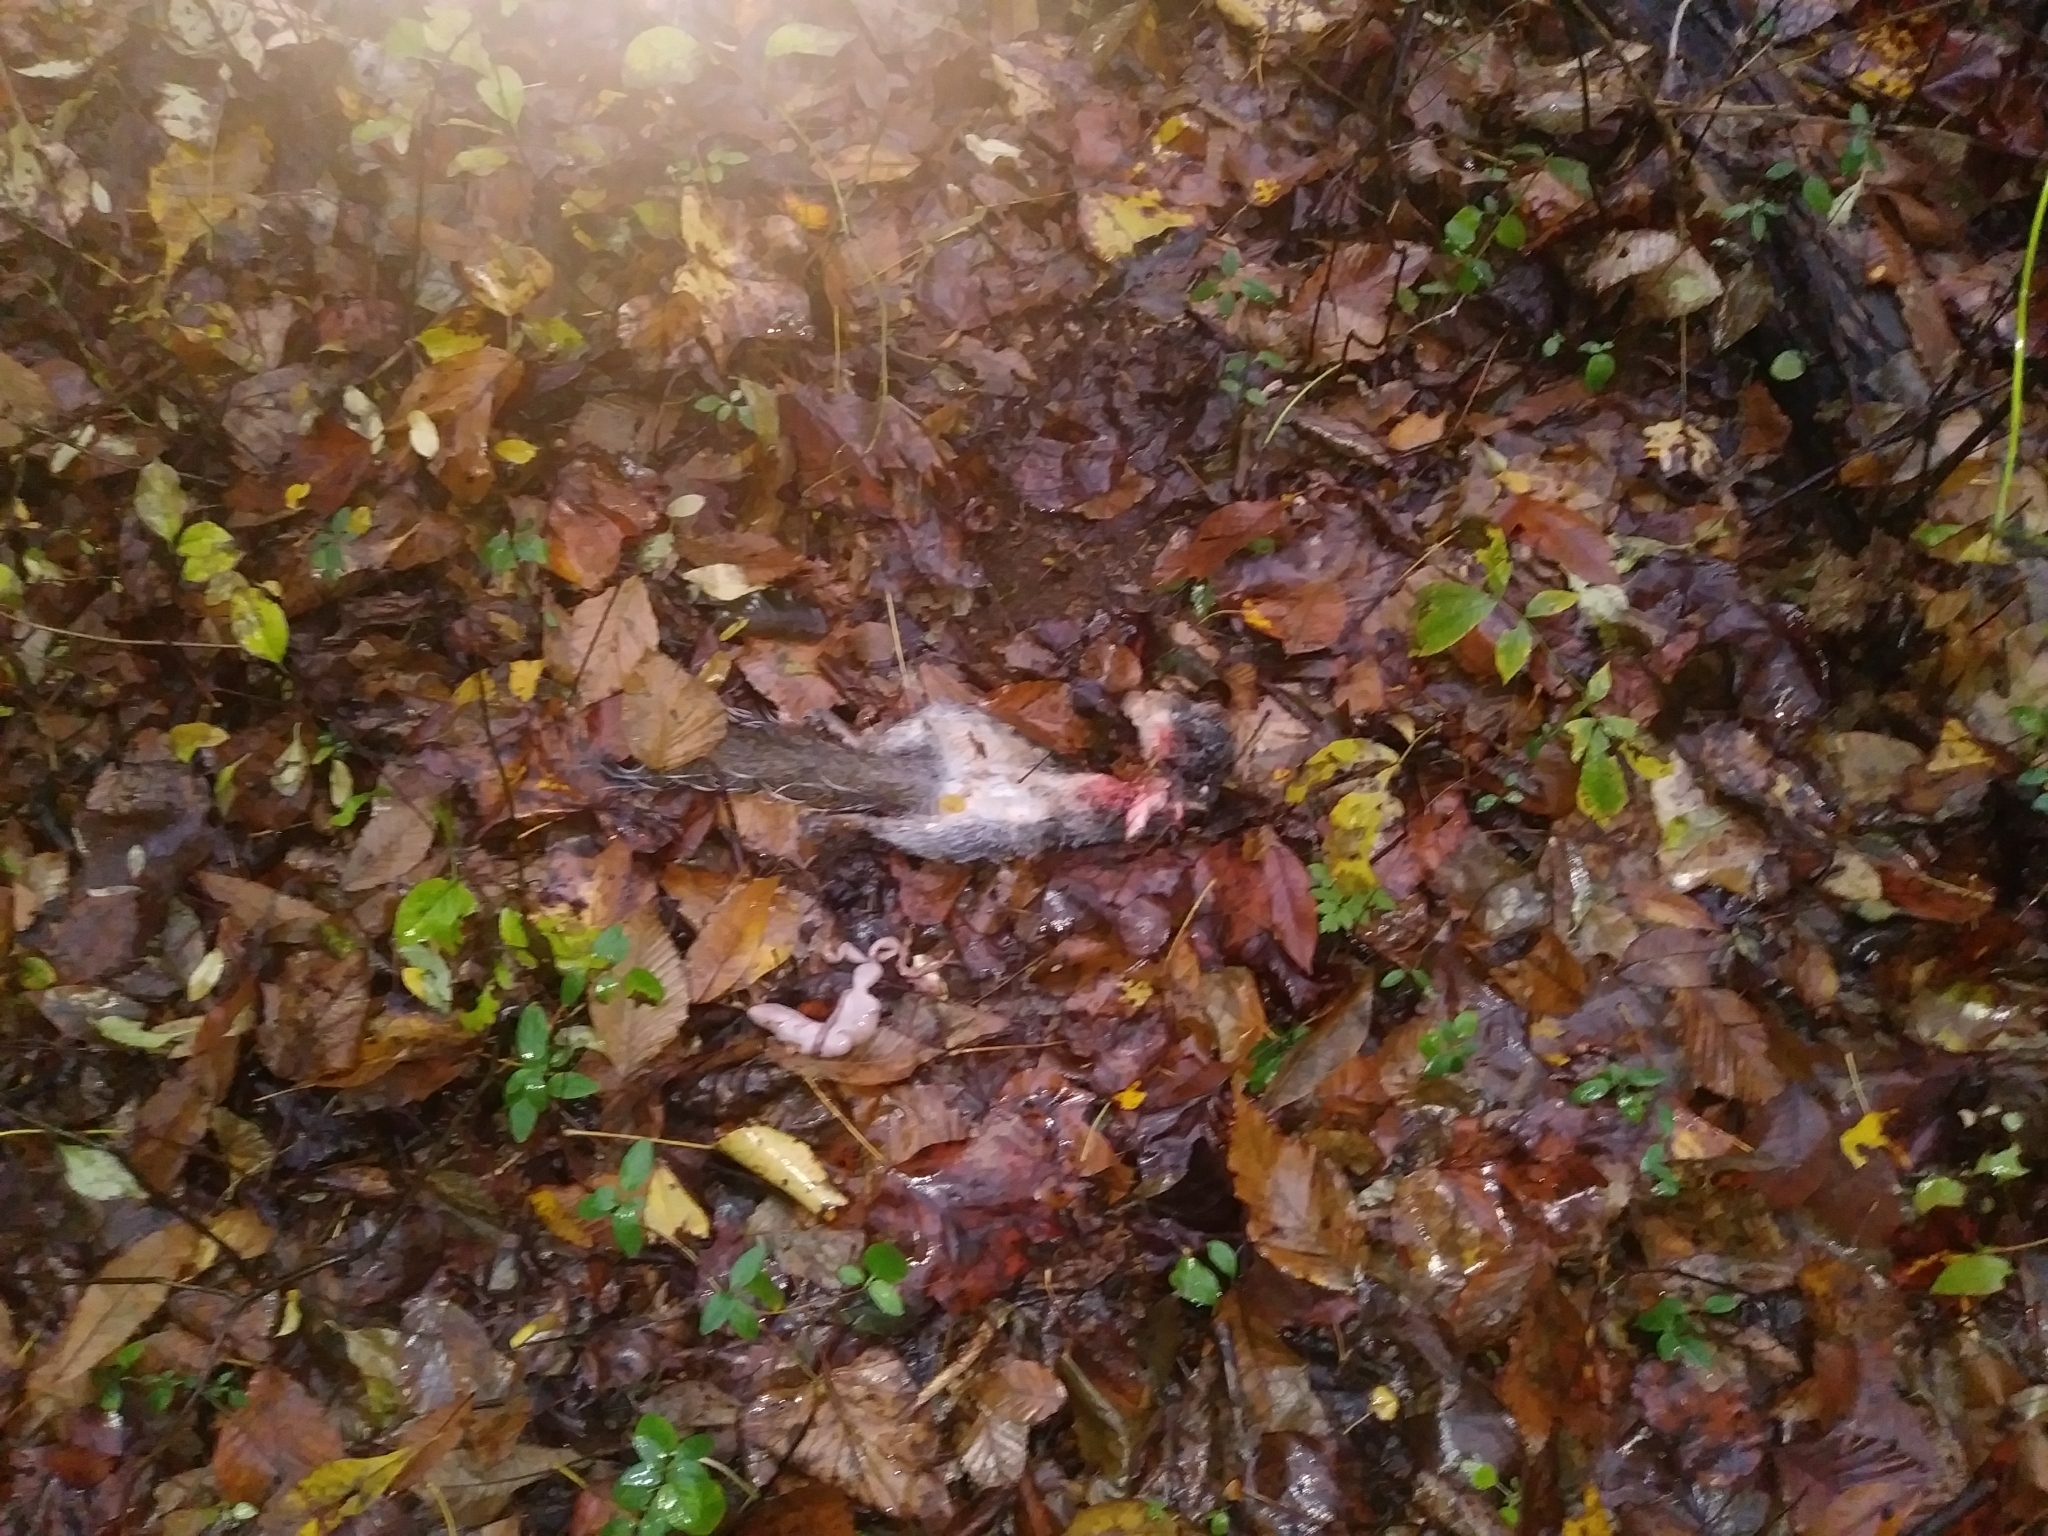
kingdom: Animalia
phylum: Chordata
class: Mammalia
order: Rodentia
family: Sciuridae
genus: Sciurus
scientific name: Sciurus carolinensis
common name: Eastern gray squirrel
